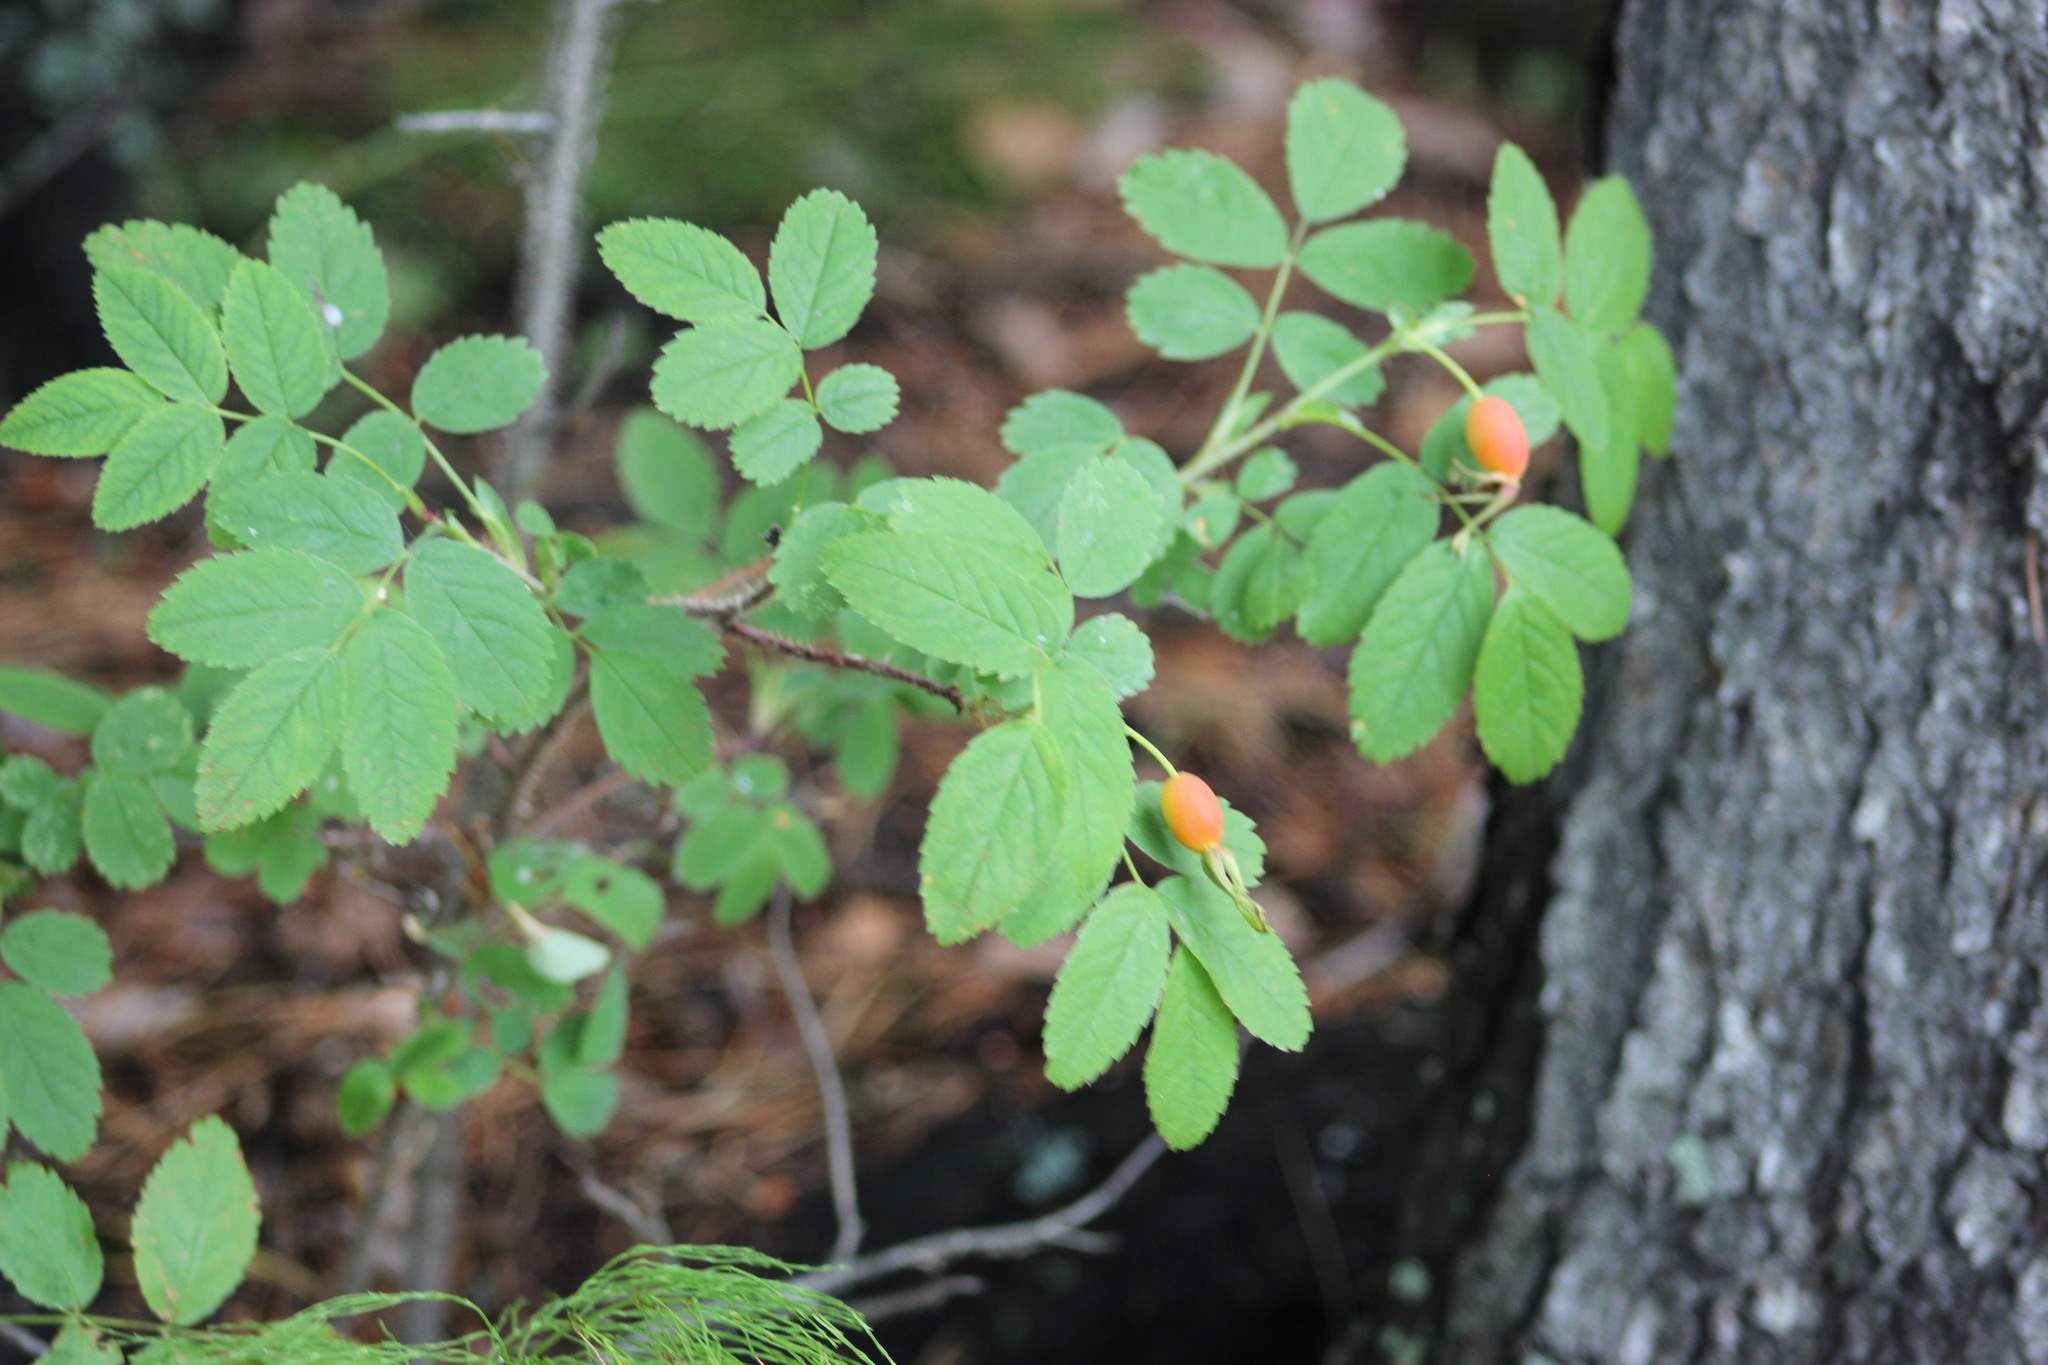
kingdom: Plantae
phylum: Tracheophyta
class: Magnoliopsida
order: Rosales
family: Rosaceae
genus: Rosa
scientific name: Rosa acicularis
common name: Prickly rose
